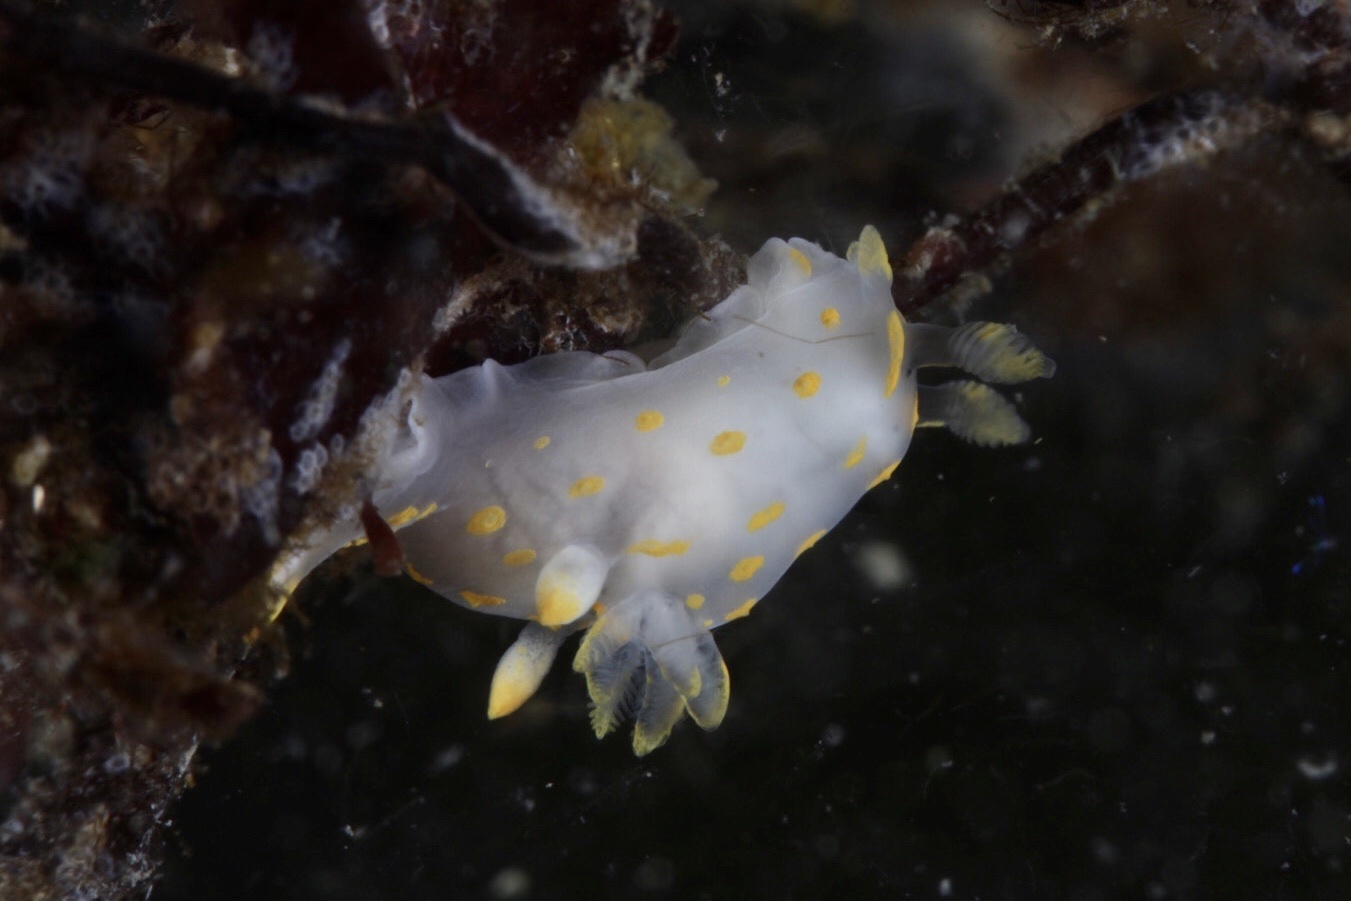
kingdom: Animalia
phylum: Mollusca
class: Gastropoda
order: Nudibranchia
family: Polyceridae
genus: Polycera
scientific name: Polycera quadrilineata
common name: Four-striped polycera
